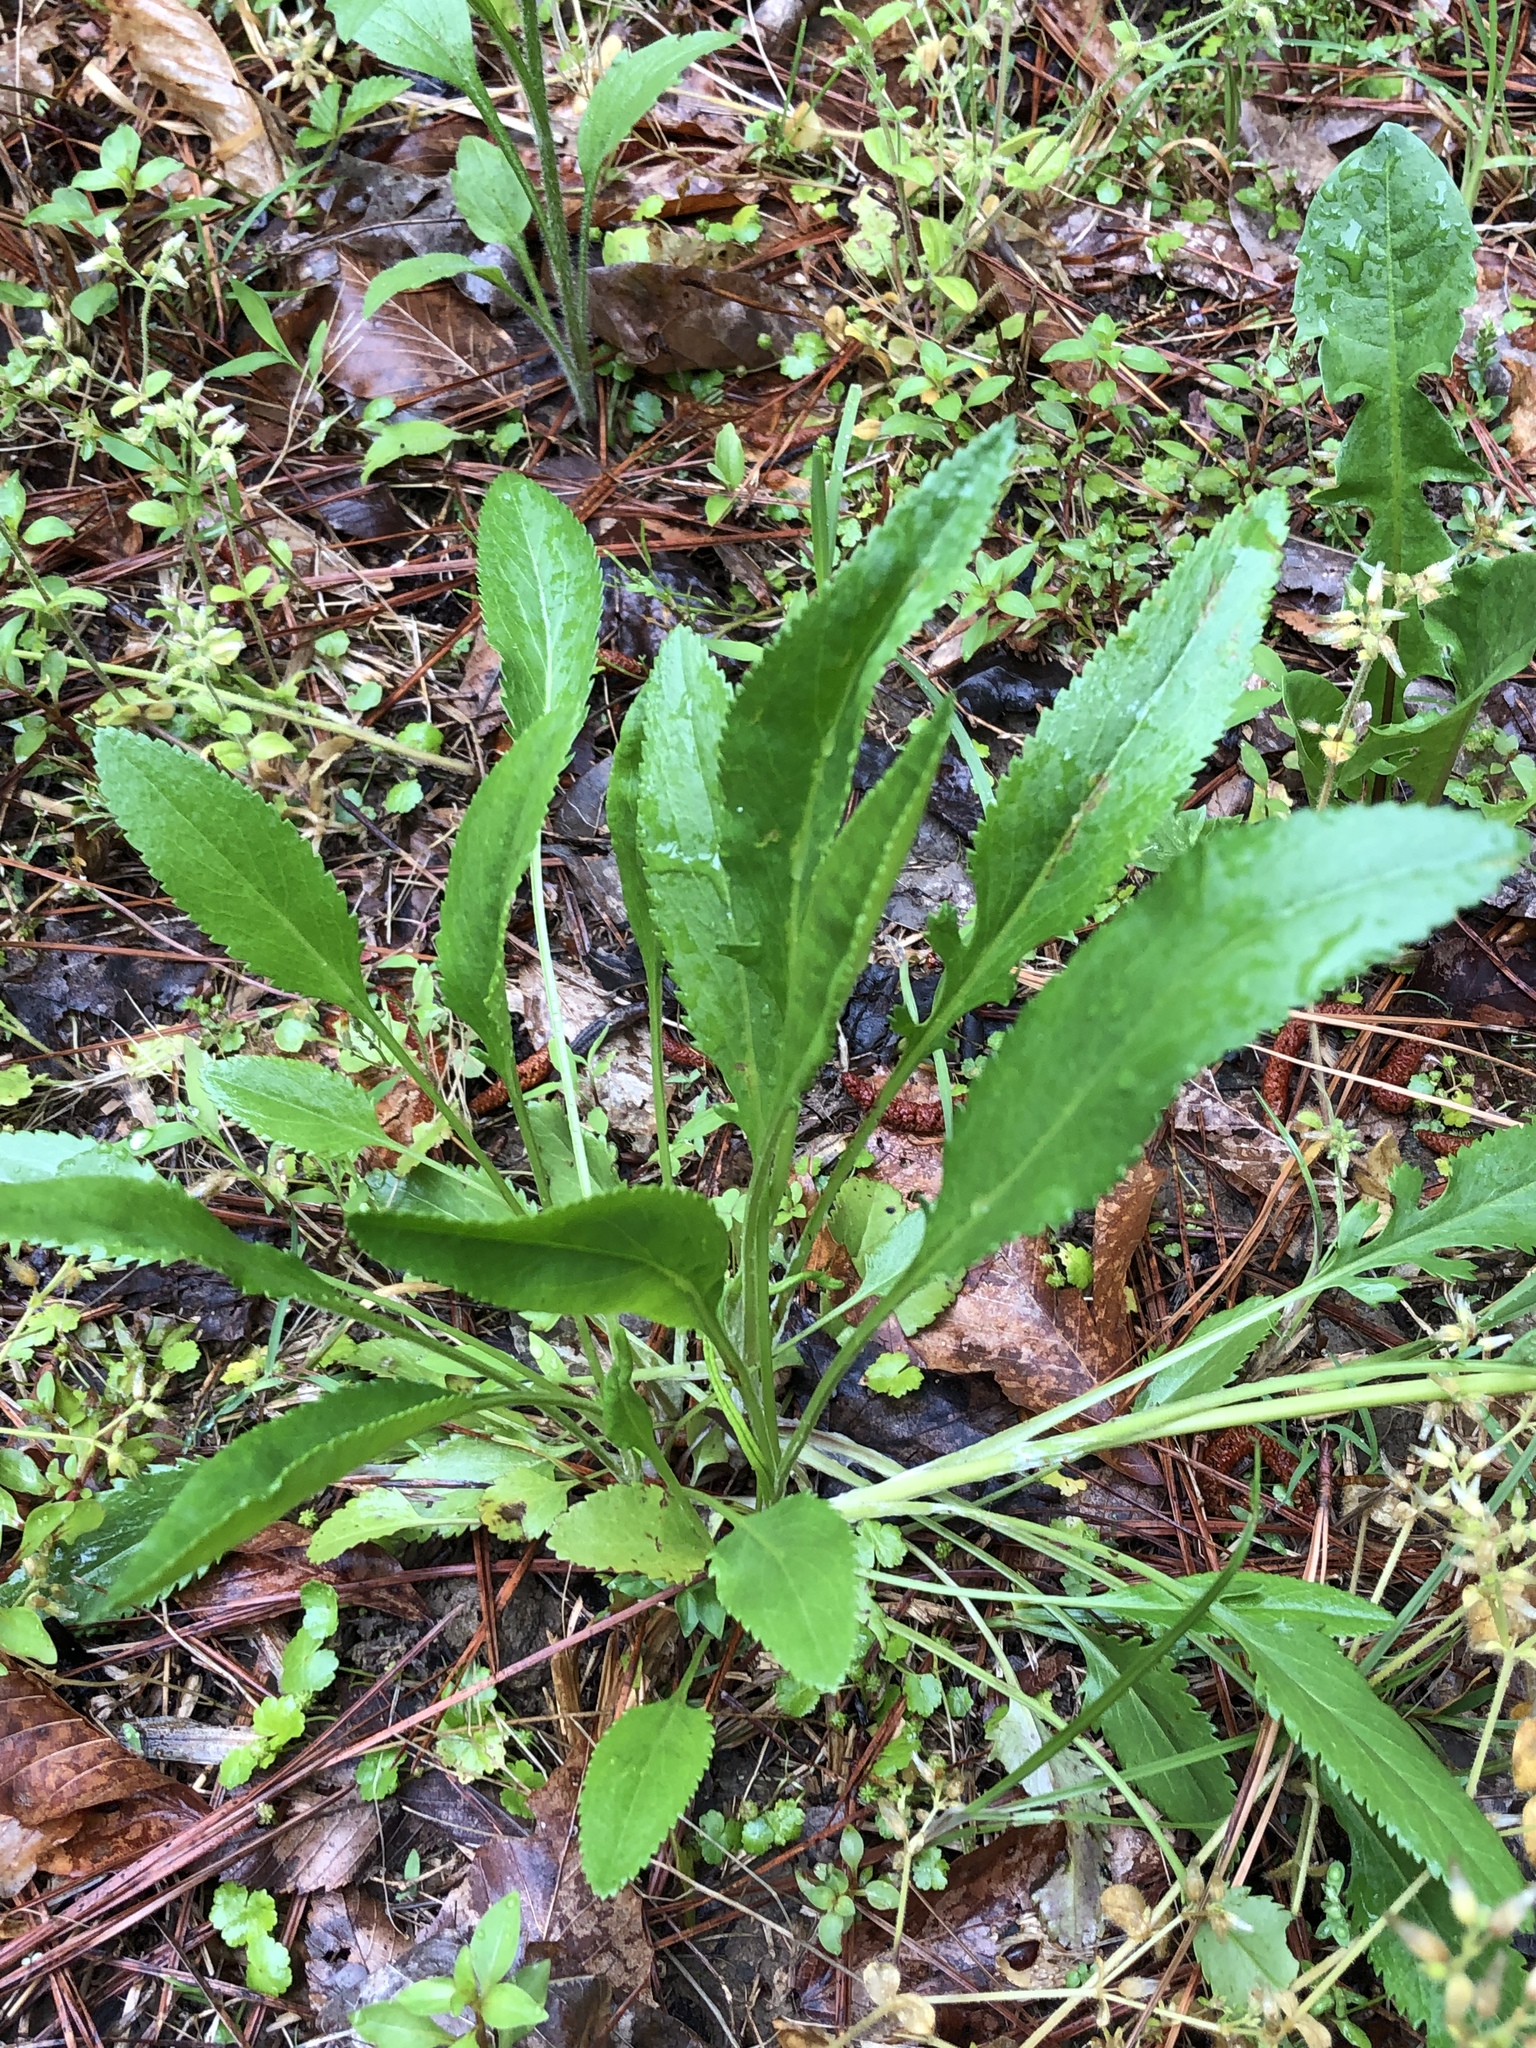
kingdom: Plantae
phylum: Tracheophyta
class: Magnoliopsida
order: Asterales
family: Asteraceae
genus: Packera
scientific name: Packera anonyma
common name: Small ragwort
